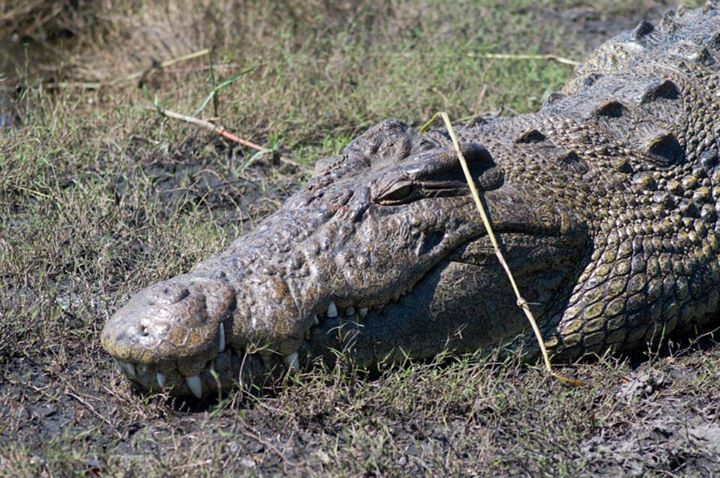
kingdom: Animalia
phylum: Chordata
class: Crocodylia
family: Crocodylidae
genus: Crocodylus
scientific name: Crocodylus niloticus
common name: Nile crocodile
